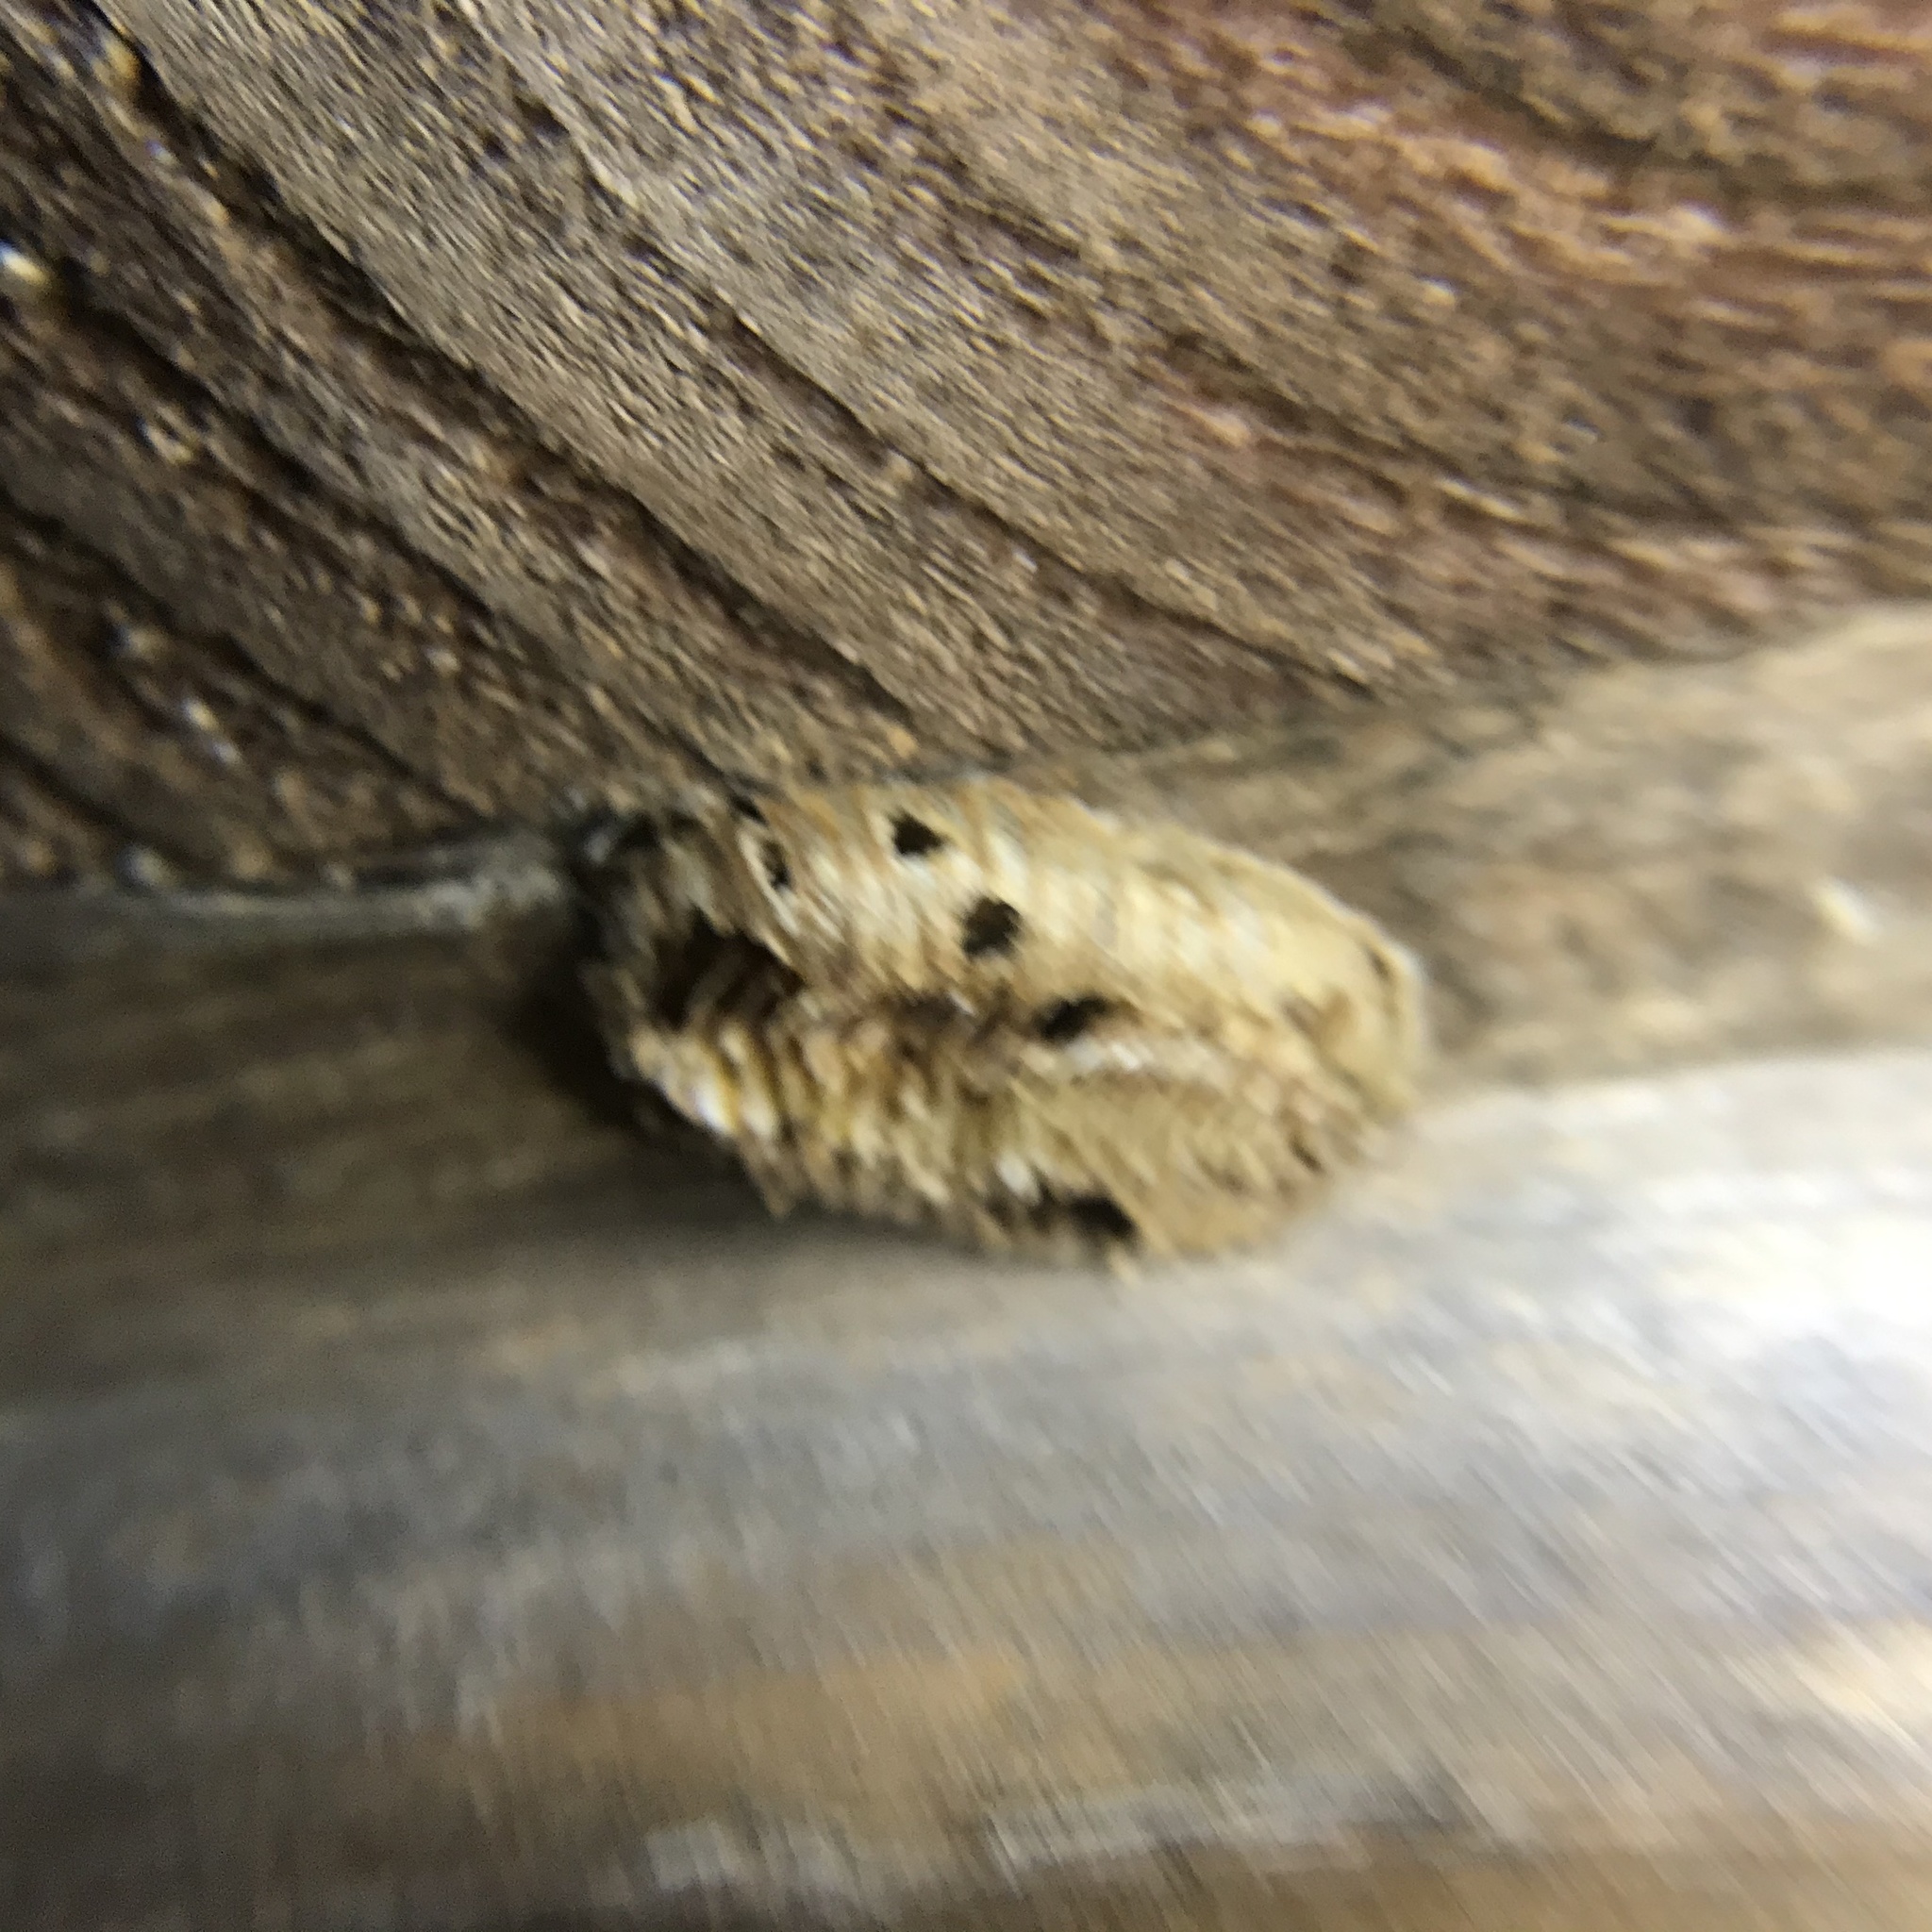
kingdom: Animalia
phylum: Arthropoda
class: Insecta
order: Mantodea
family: Mantidae
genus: Stagmomantis
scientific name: Stagmomantis carolina
